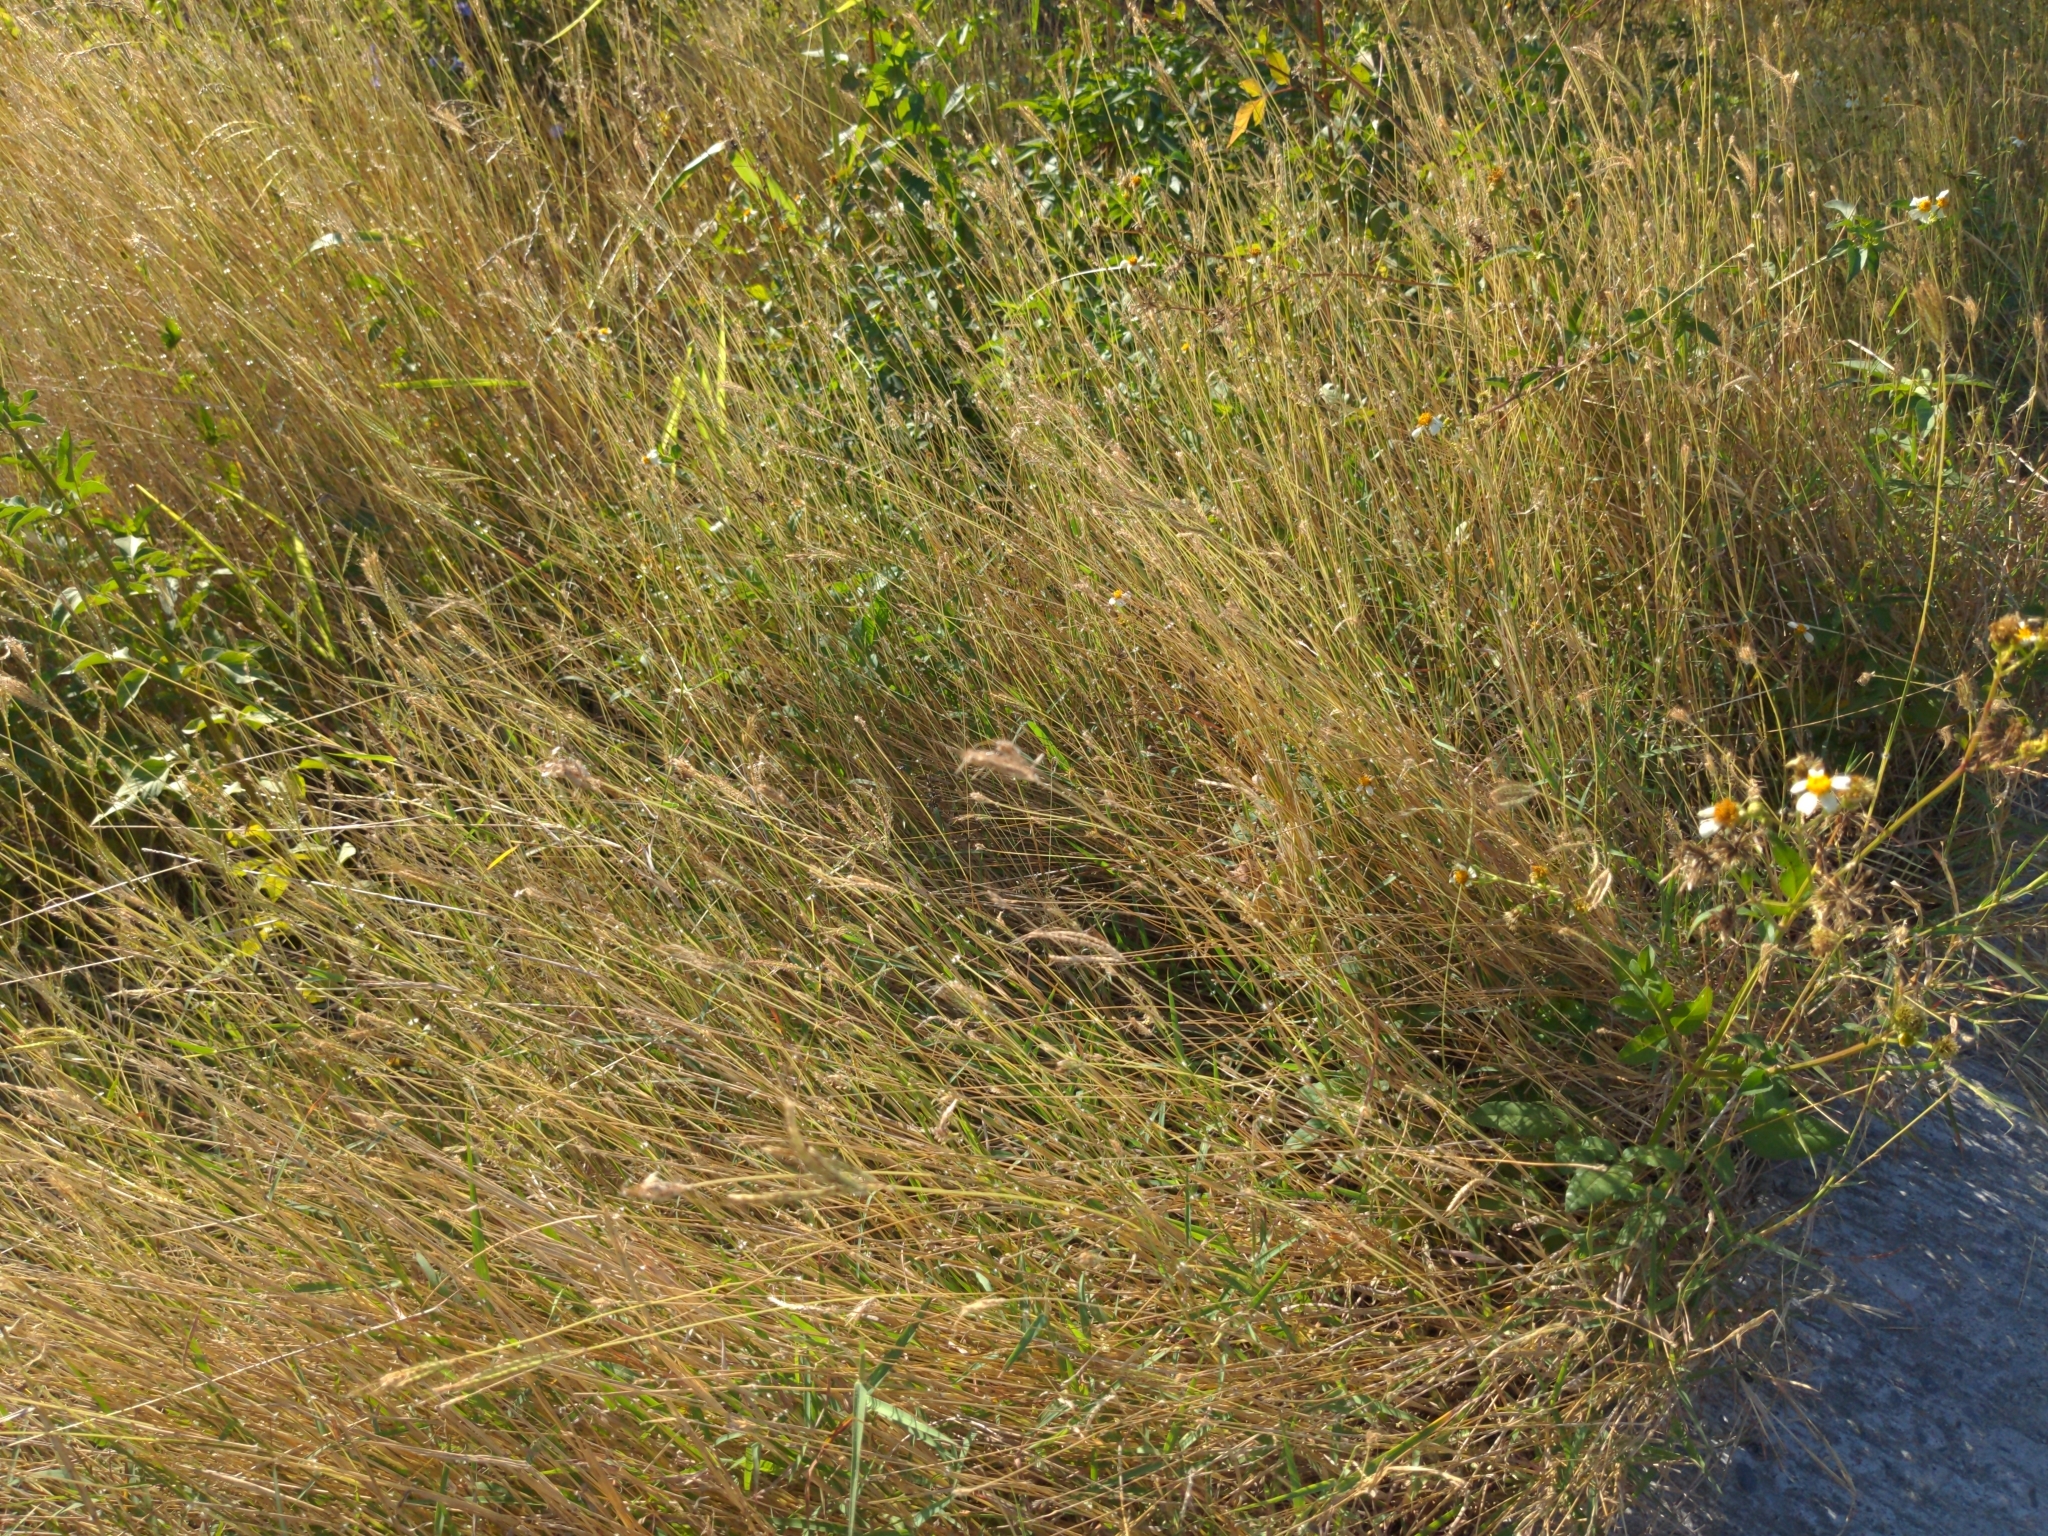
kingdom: Plantae
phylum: Tracheophyta
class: Liliopsida
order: Poales
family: Poaceae
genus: Dichanthium
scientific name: Dichanthium annulatum
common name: Kleberg's bluestem
